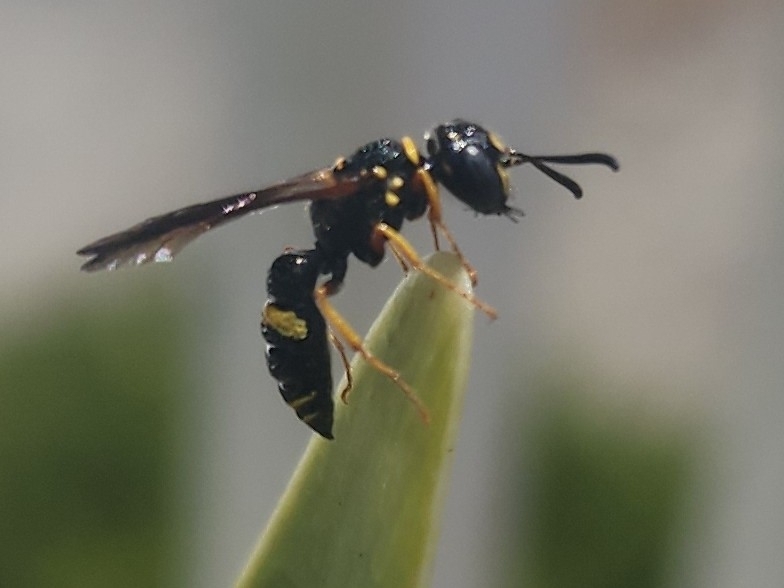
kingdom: Animalia
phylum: Arthropoda
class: Insecta
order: Hymenoptera
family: Crabronidae
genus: Philanthus
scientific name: Philanthus gibbosus
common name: Humped beewolf
